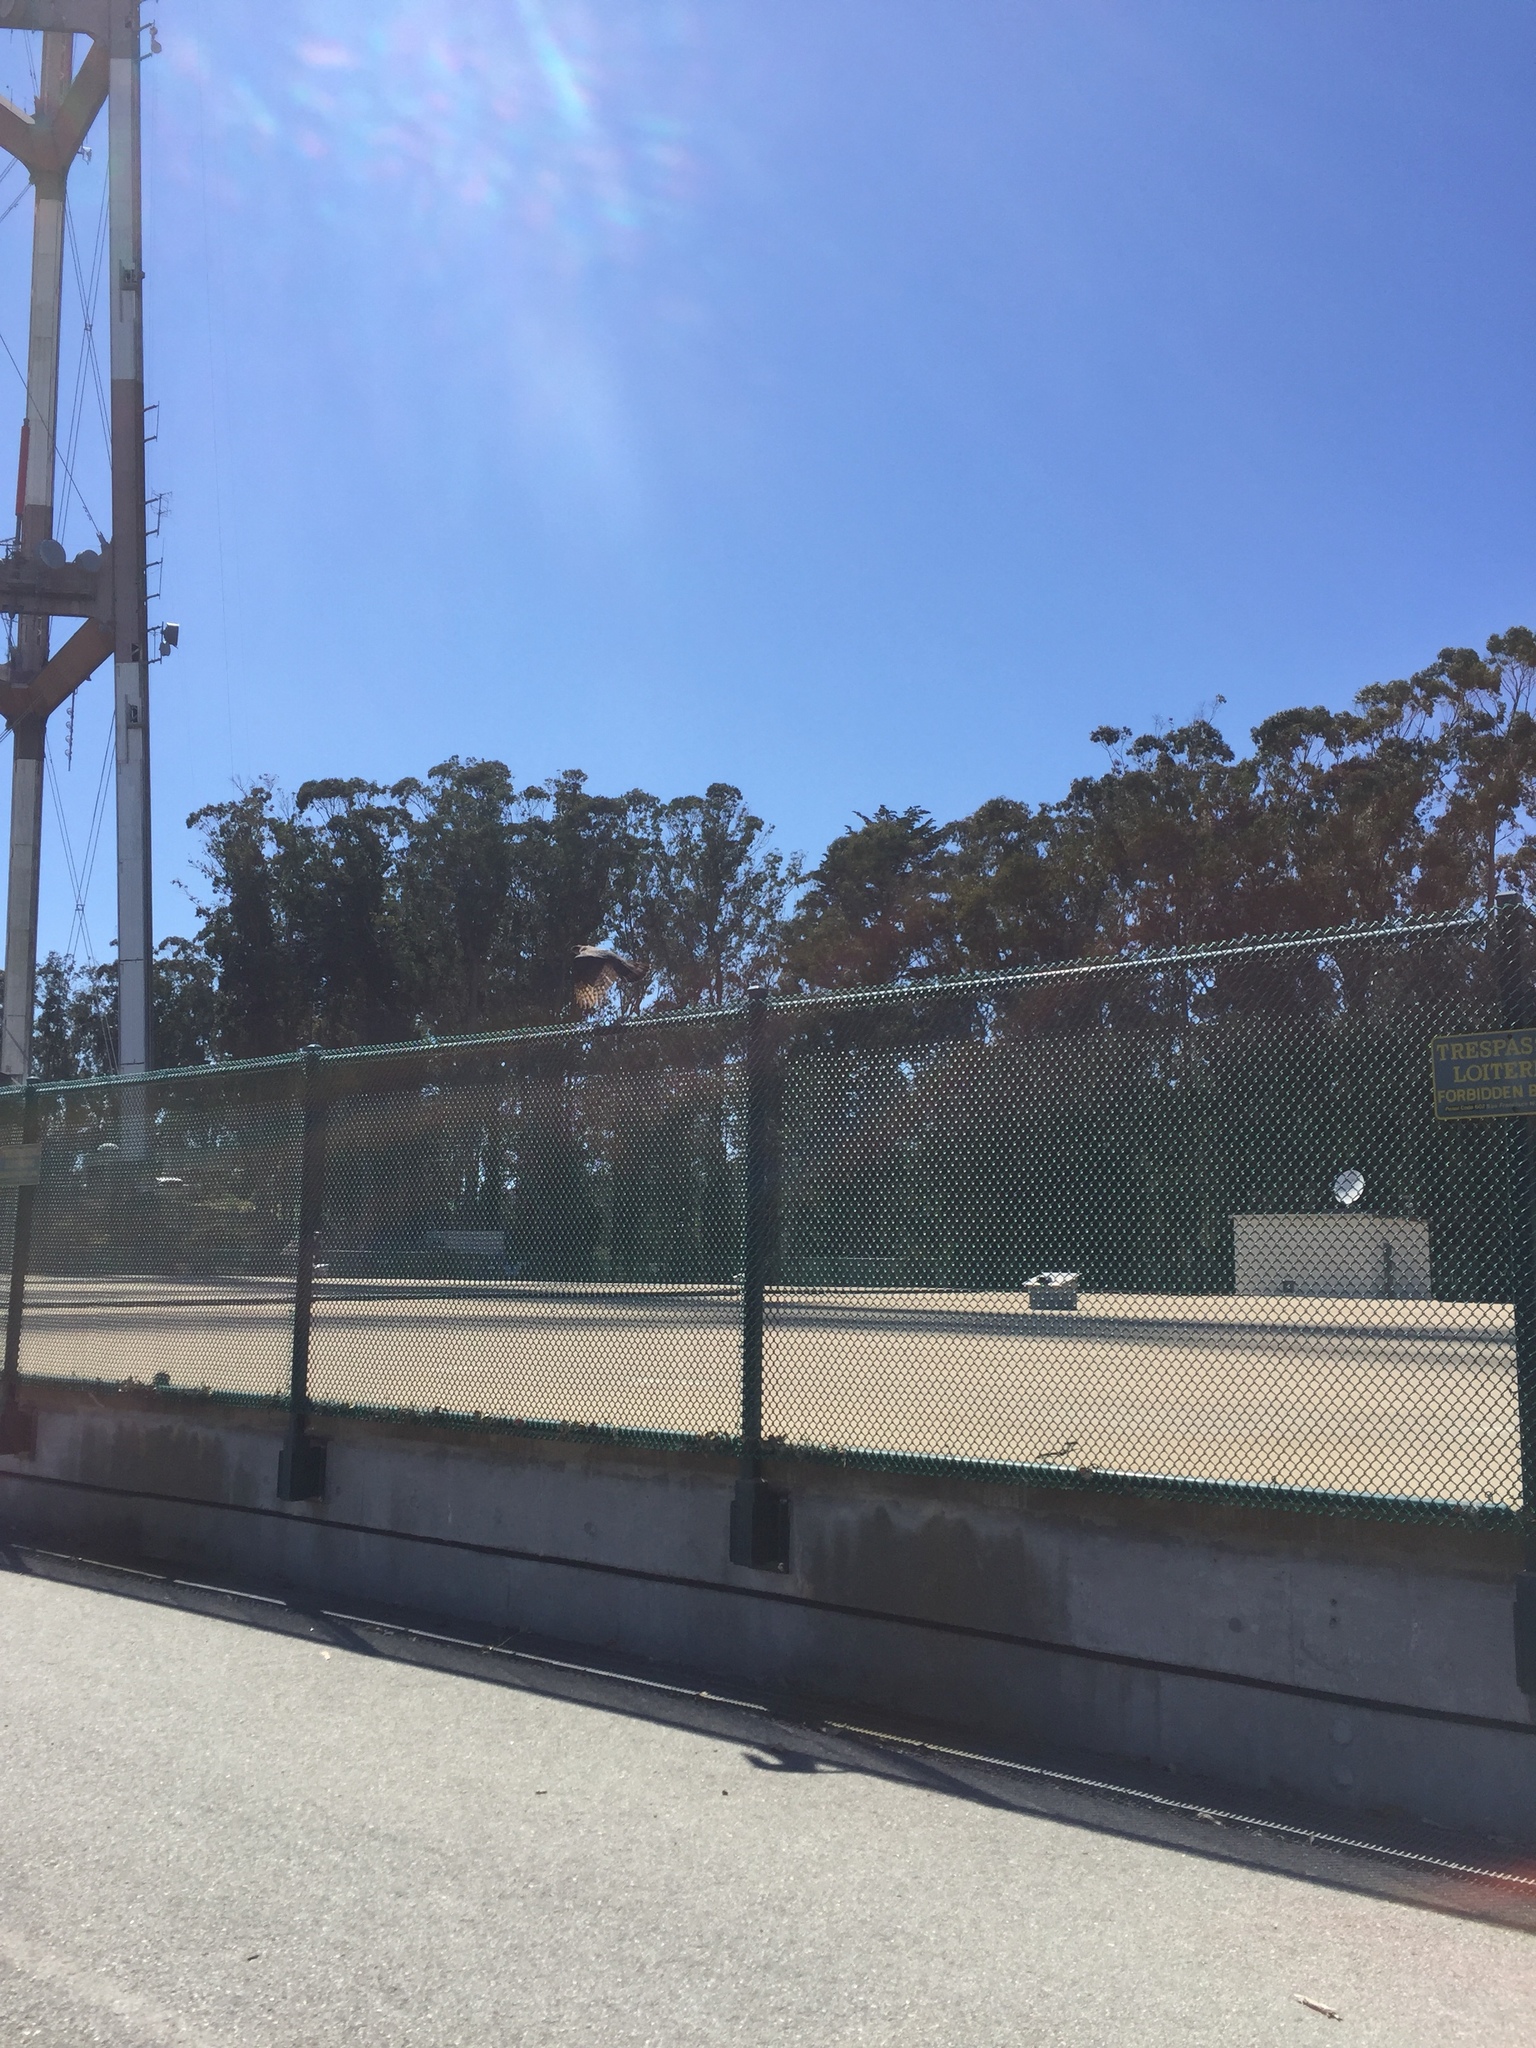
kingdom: Animalia
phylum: Chordata
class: Aves
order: Accipitriformes
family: Accipitridae
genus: Buteo
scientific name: Buteo jamaicensis
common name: Red-tailed hawk
